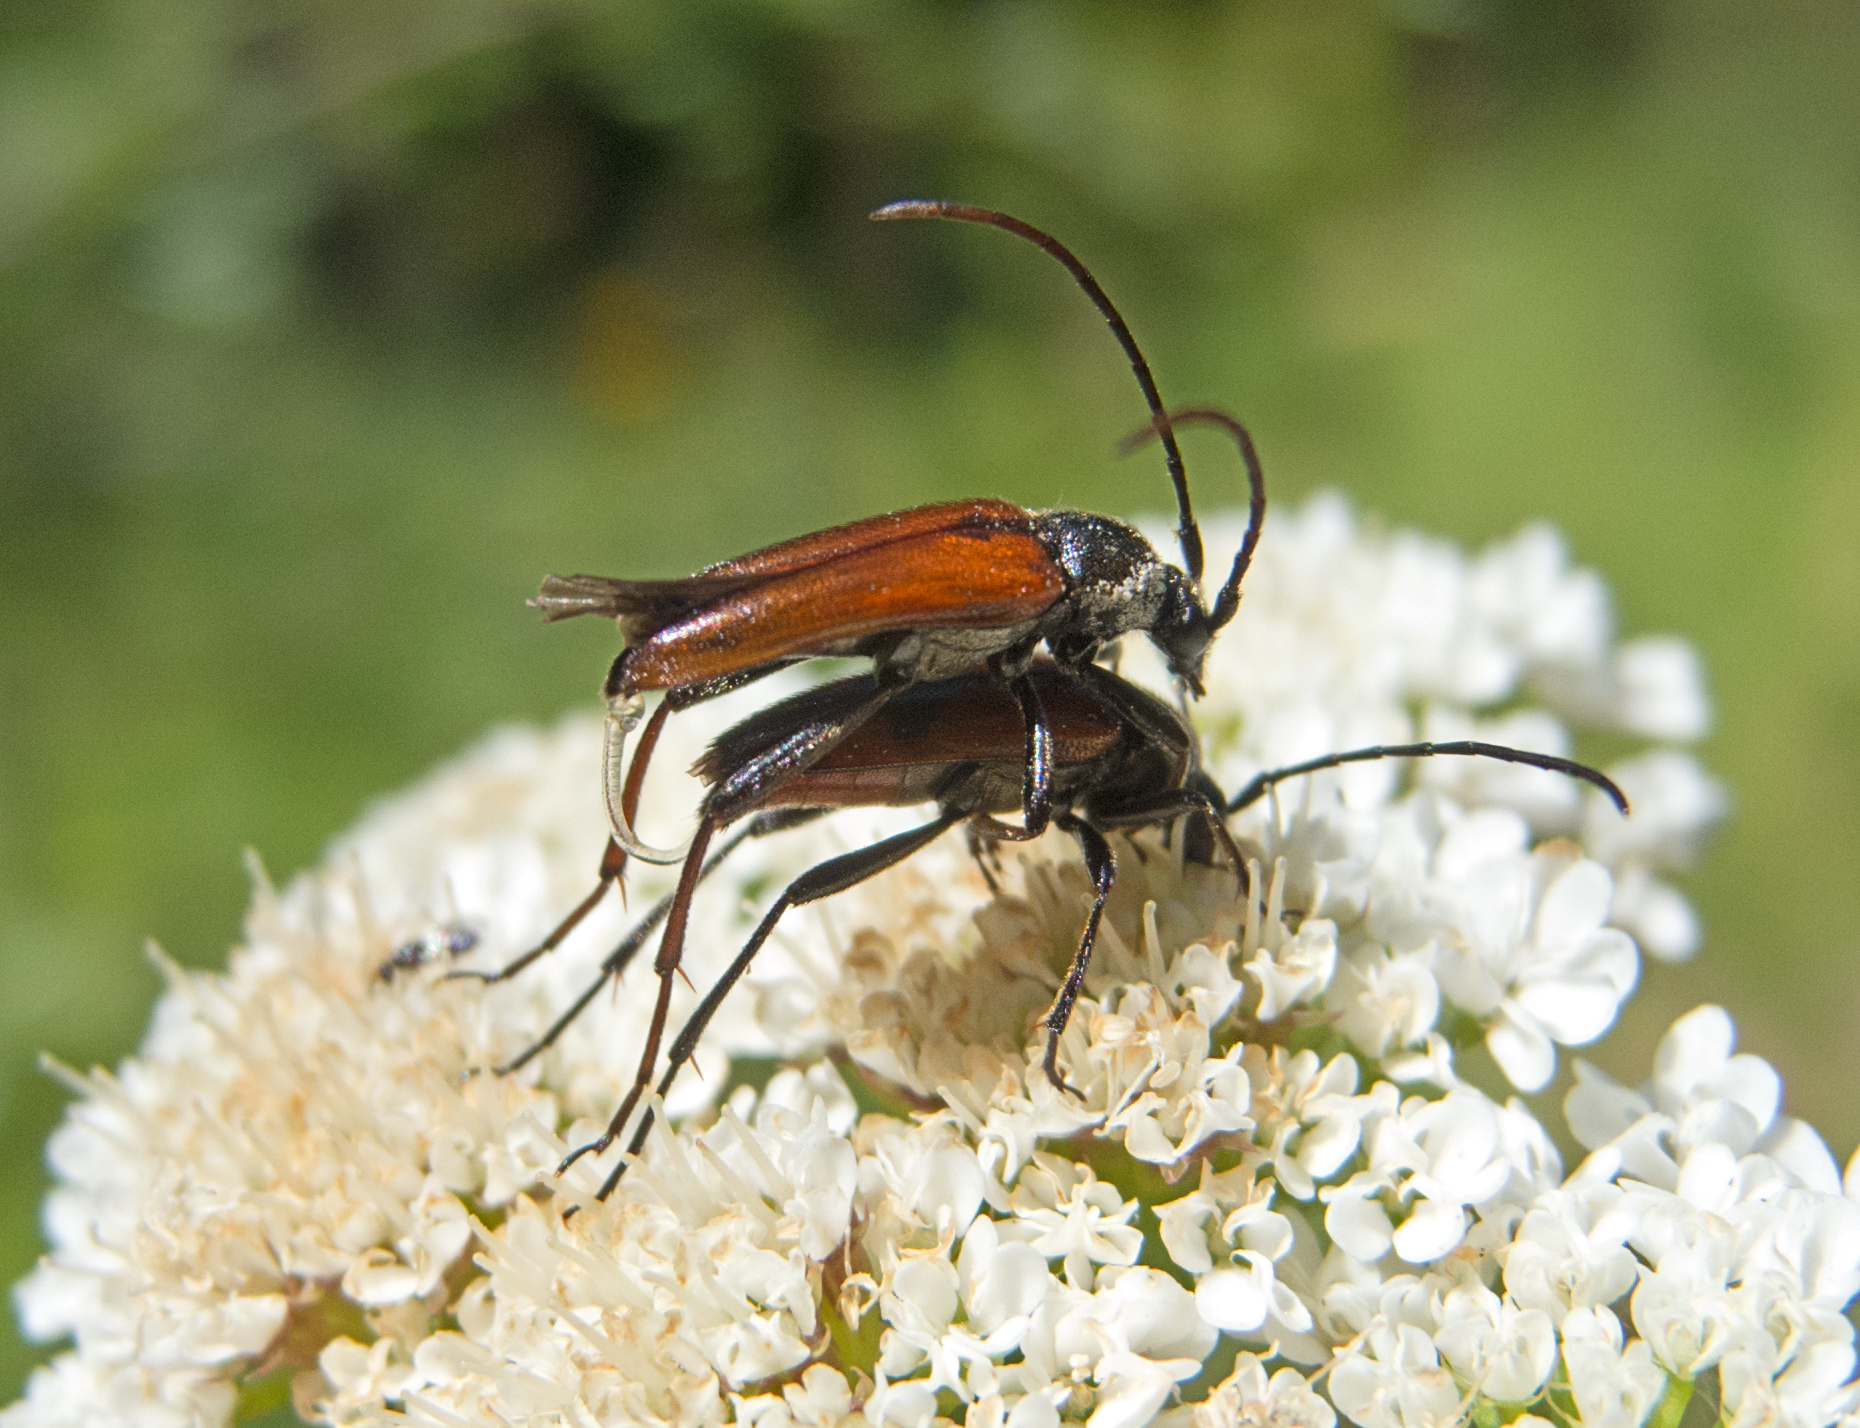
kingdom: Animalia
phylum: Arthropoda
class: Insecta
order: Coleoptera
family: Cerambycidae
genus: Stenurella
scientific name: Stenurella bifasciata
